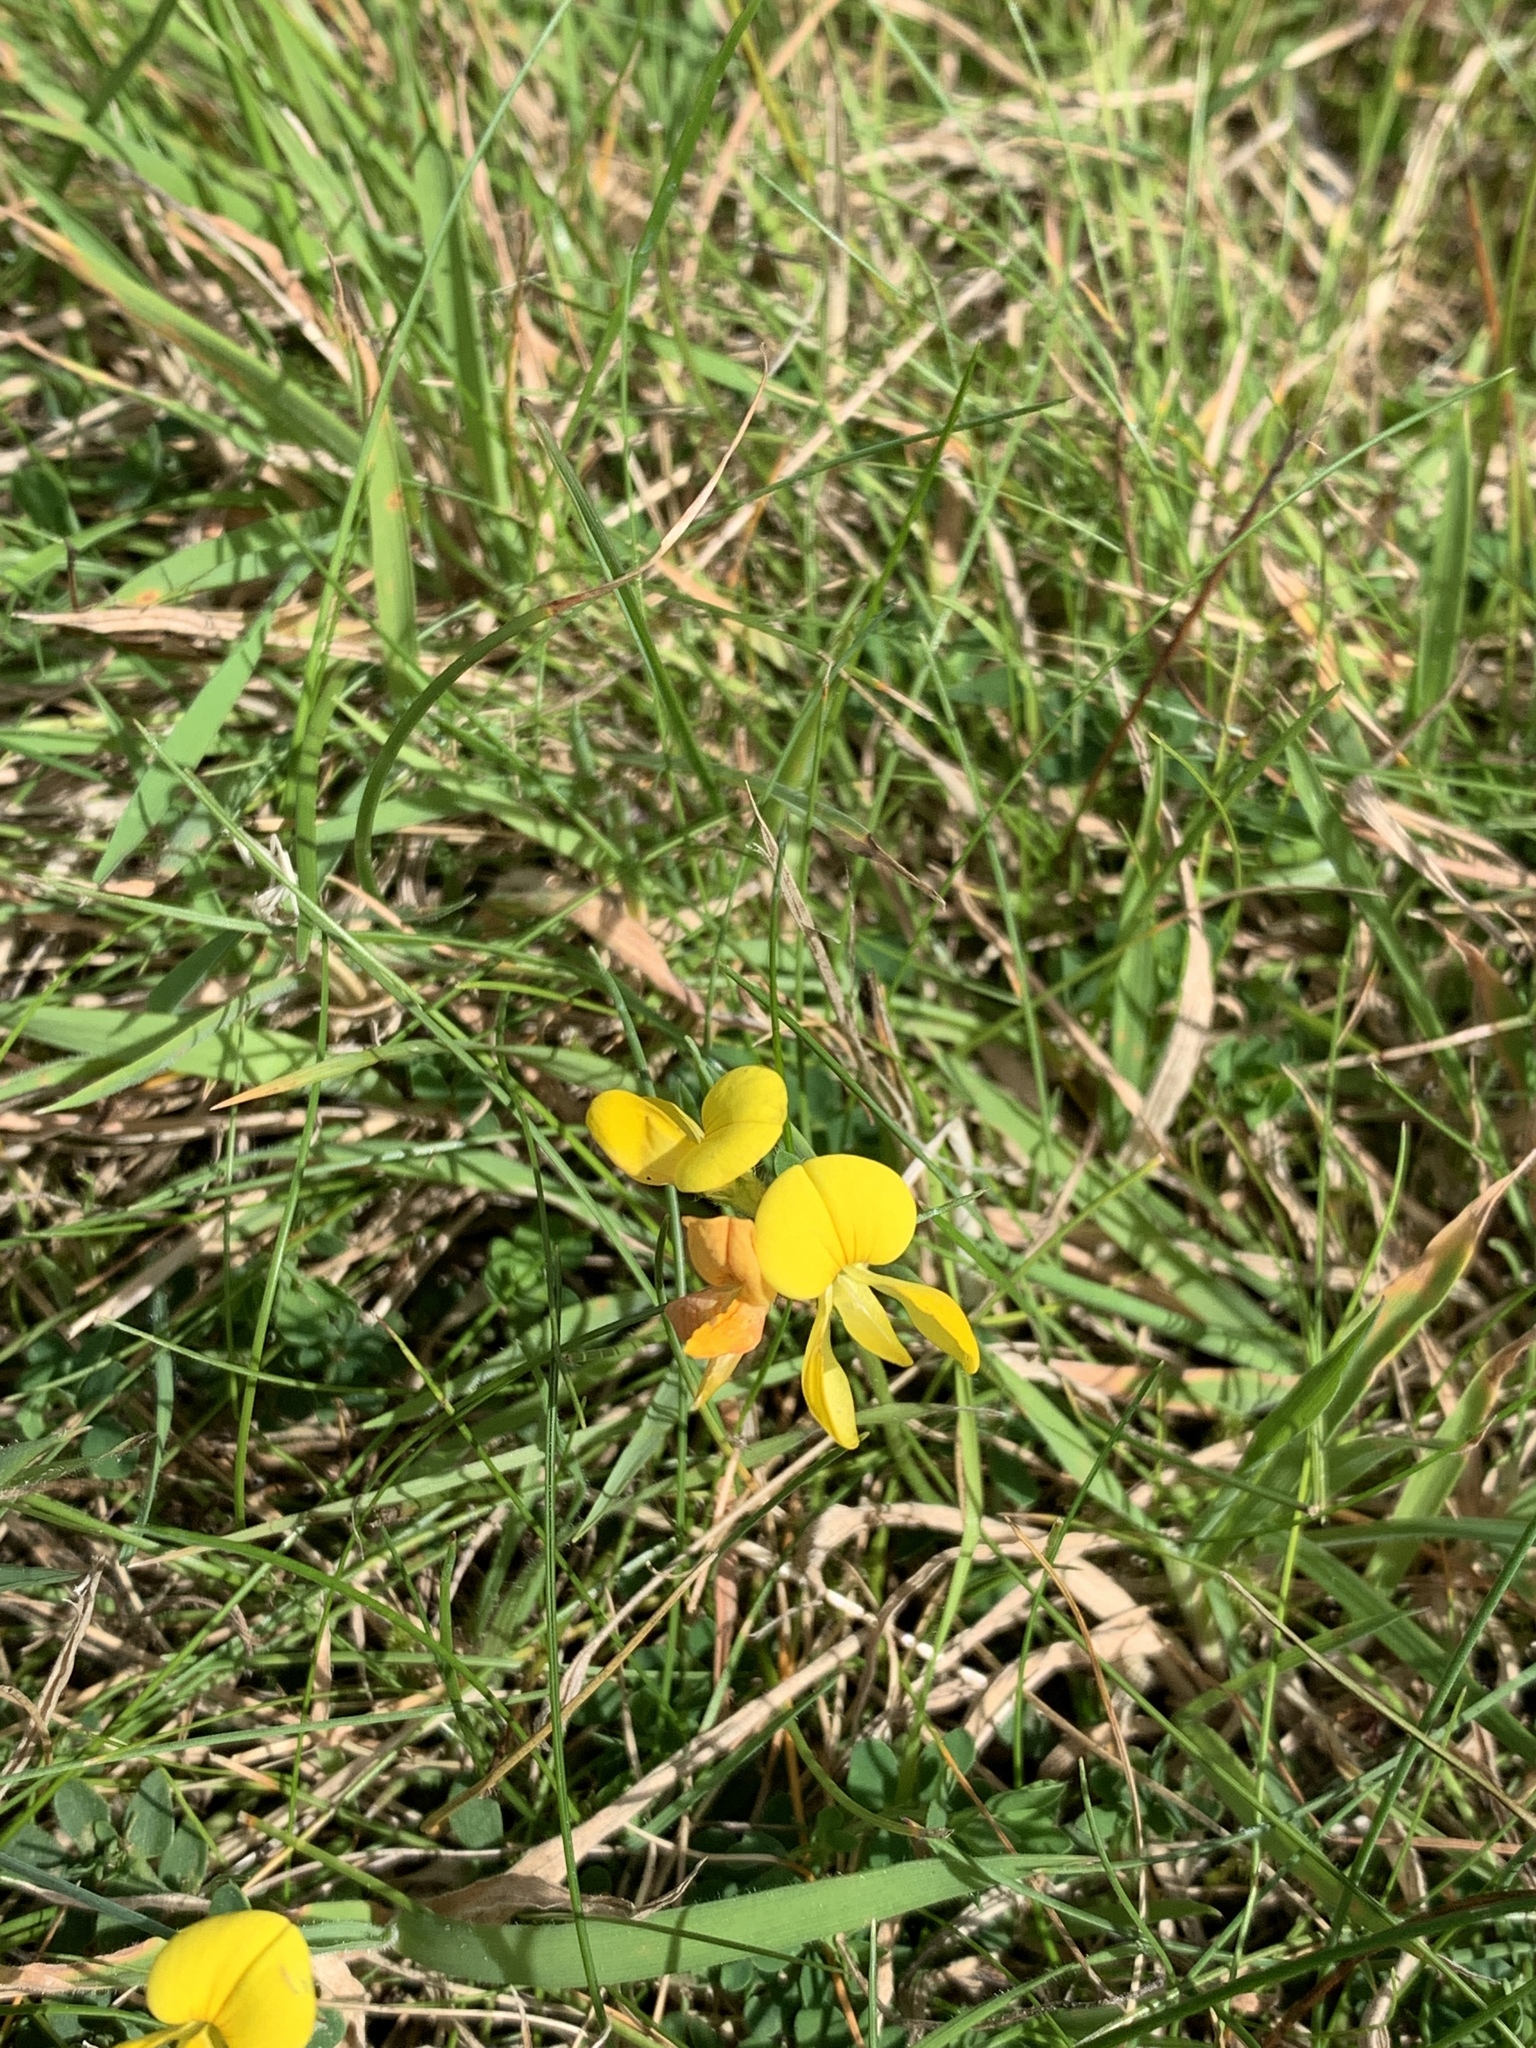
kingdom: Plantae
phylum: Tracheophyta
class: Magnoliopsida
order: Fabales
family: Fabaceae
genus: Lotus
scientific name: Lotus corniculatus
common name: Common bird's-foot-trefoil
